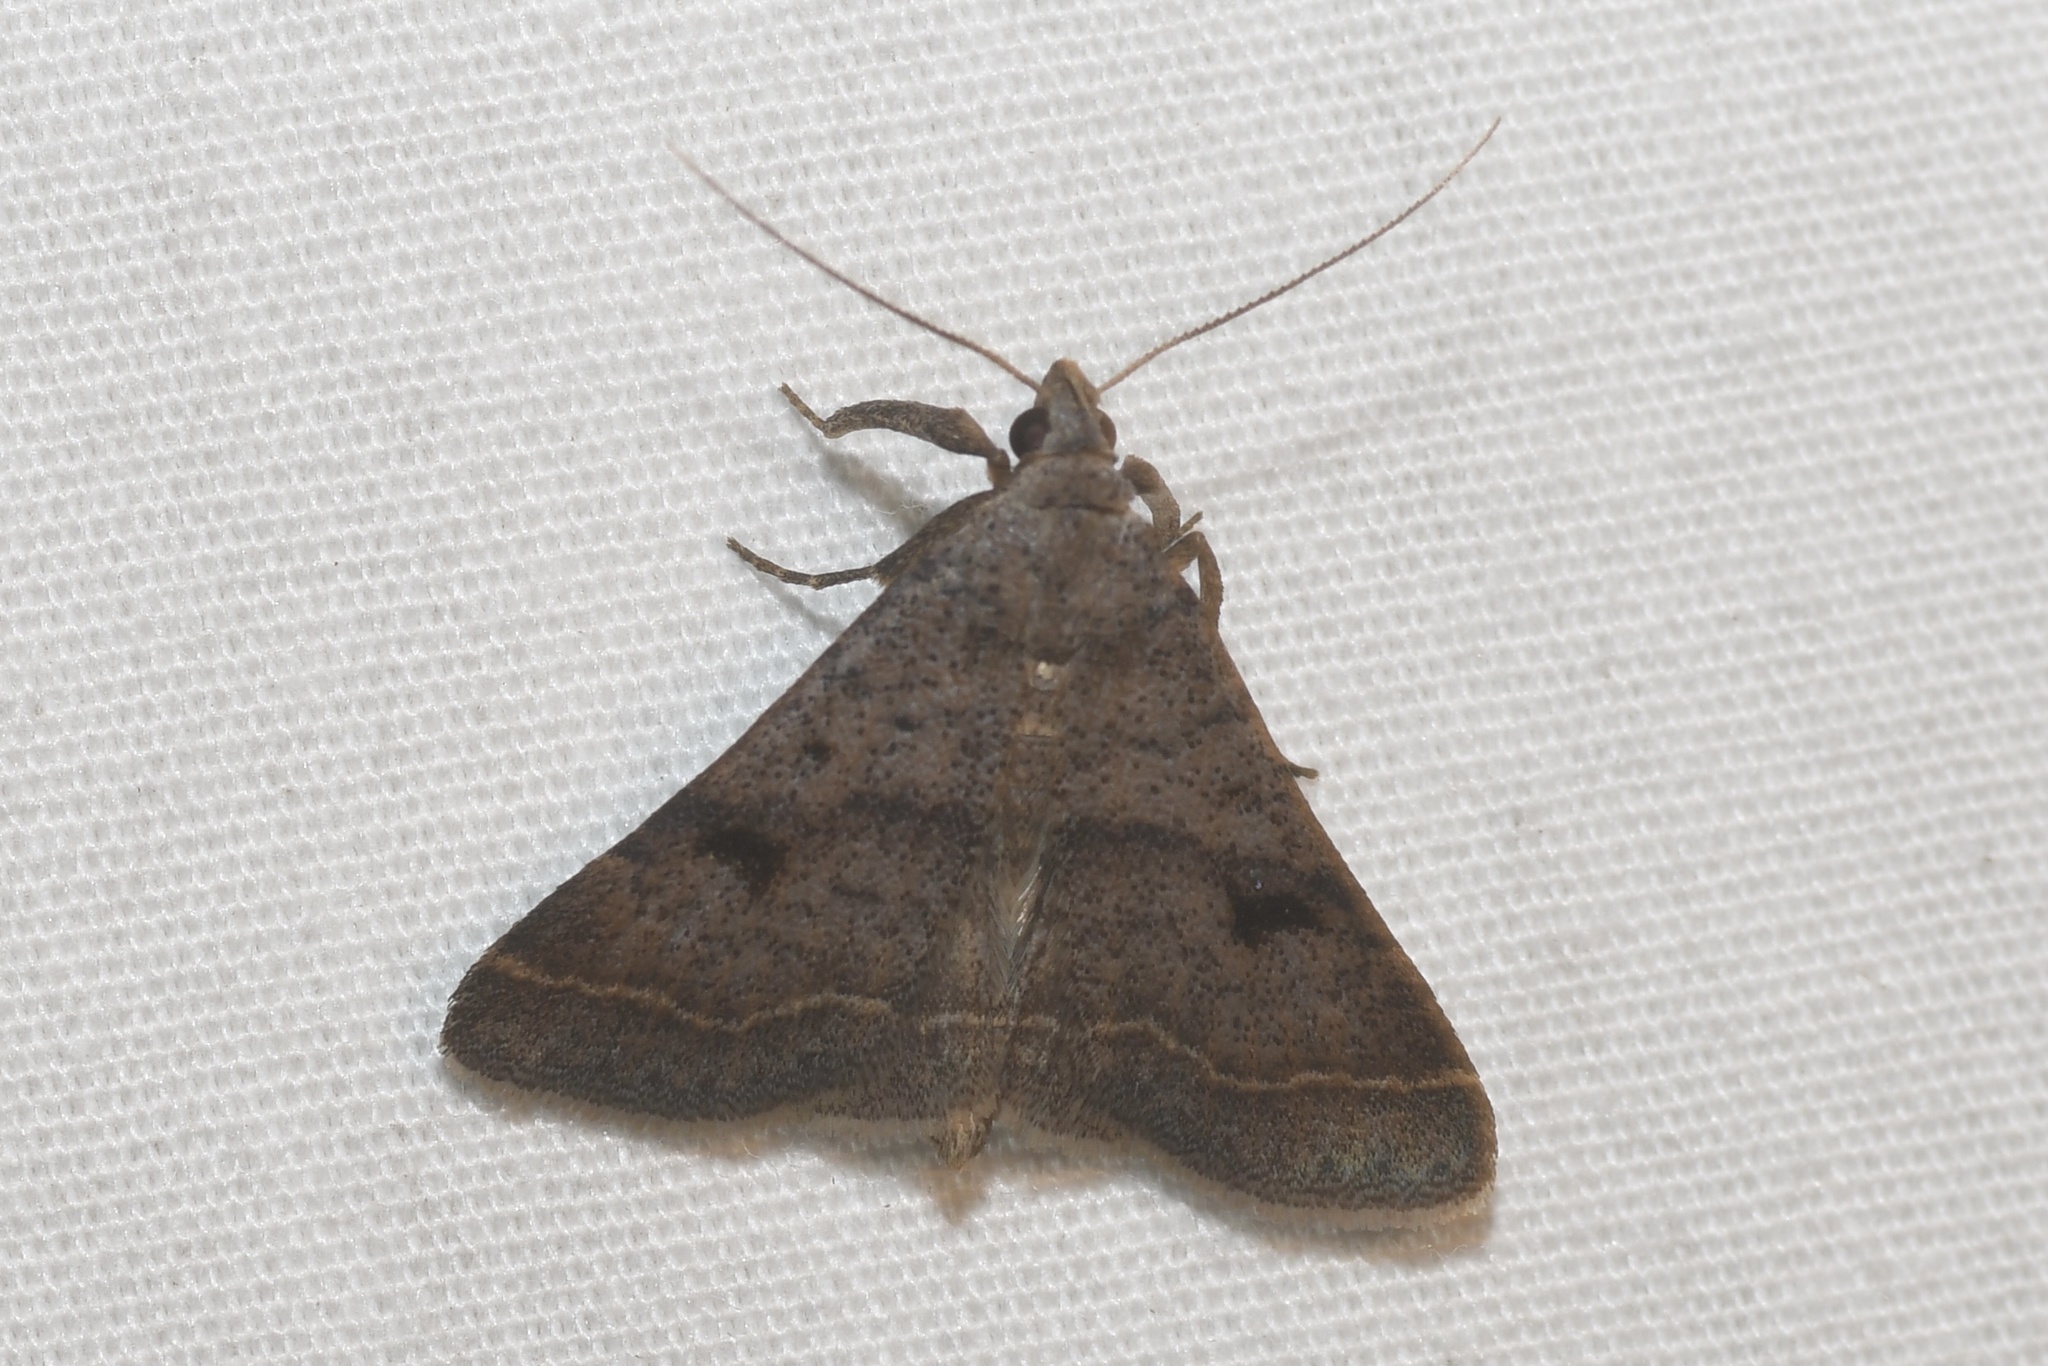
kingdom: Animalia
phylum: Arthropoda
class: Insecta
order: Lepidoptera
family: Erebidae
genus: Bleptina
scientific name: Bleptina caradrinalis
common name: Bent-winged owlet
